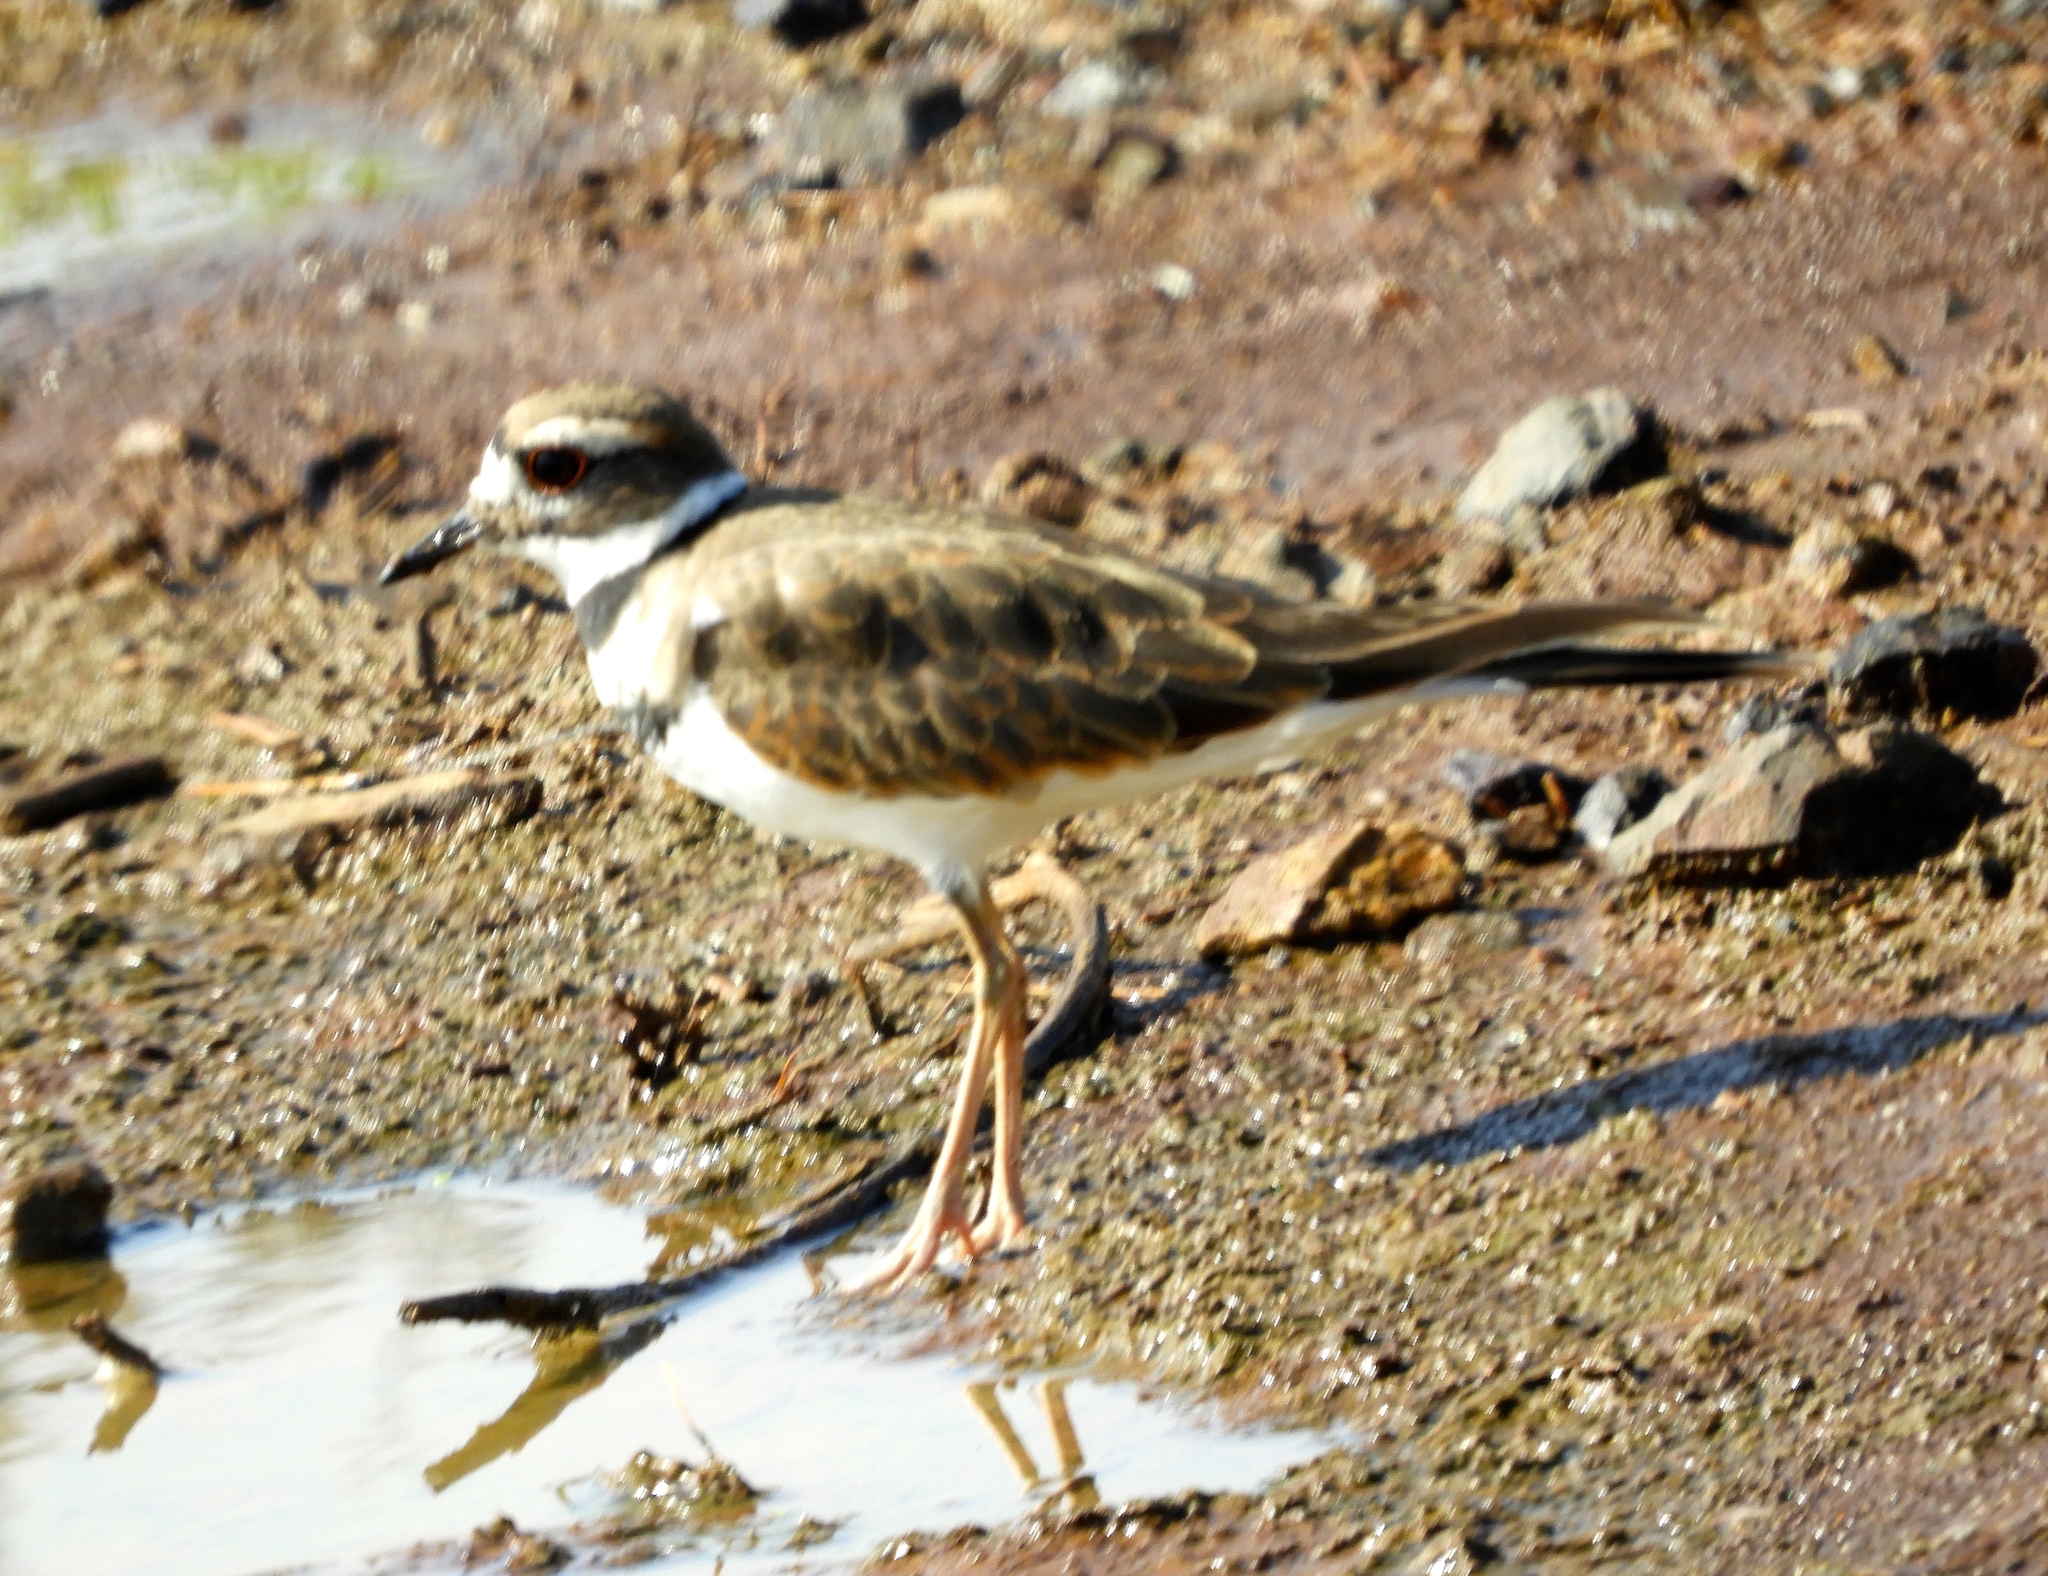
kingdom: Animalia
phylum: Chordata
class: Aves
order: Charadriiformes
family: Charadriidae
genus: Charadrius
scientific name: Charadrius vociferus
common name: Killdeer
